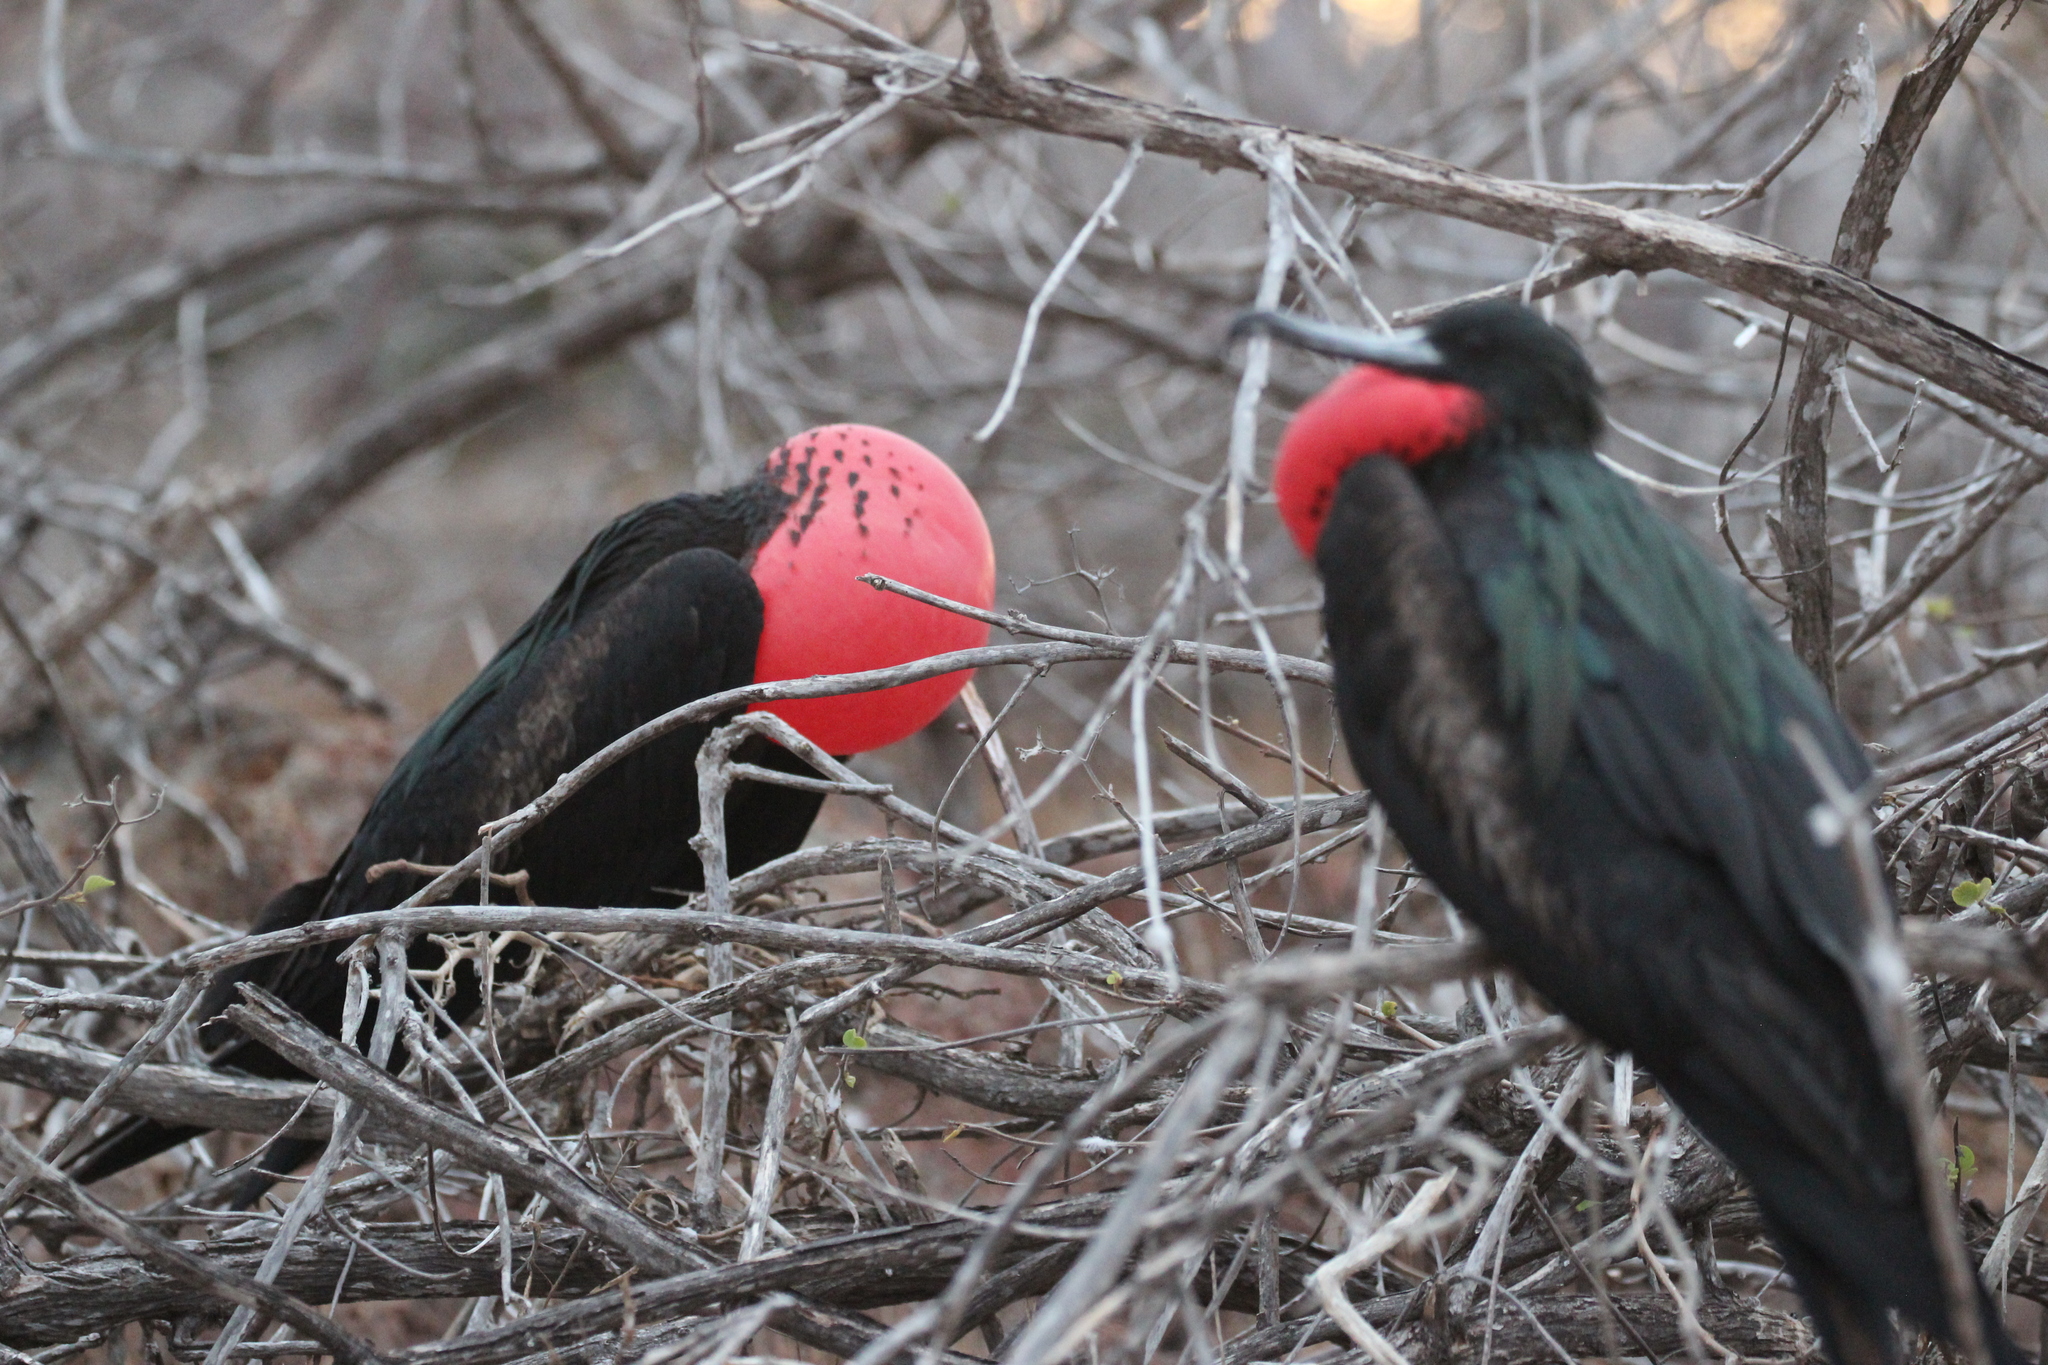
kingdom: Animalia
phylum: Chordata
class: Aves
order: Suliformes
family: Fregatidae
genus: Fregata
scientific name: Fregata minor
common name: Great frigatebird
